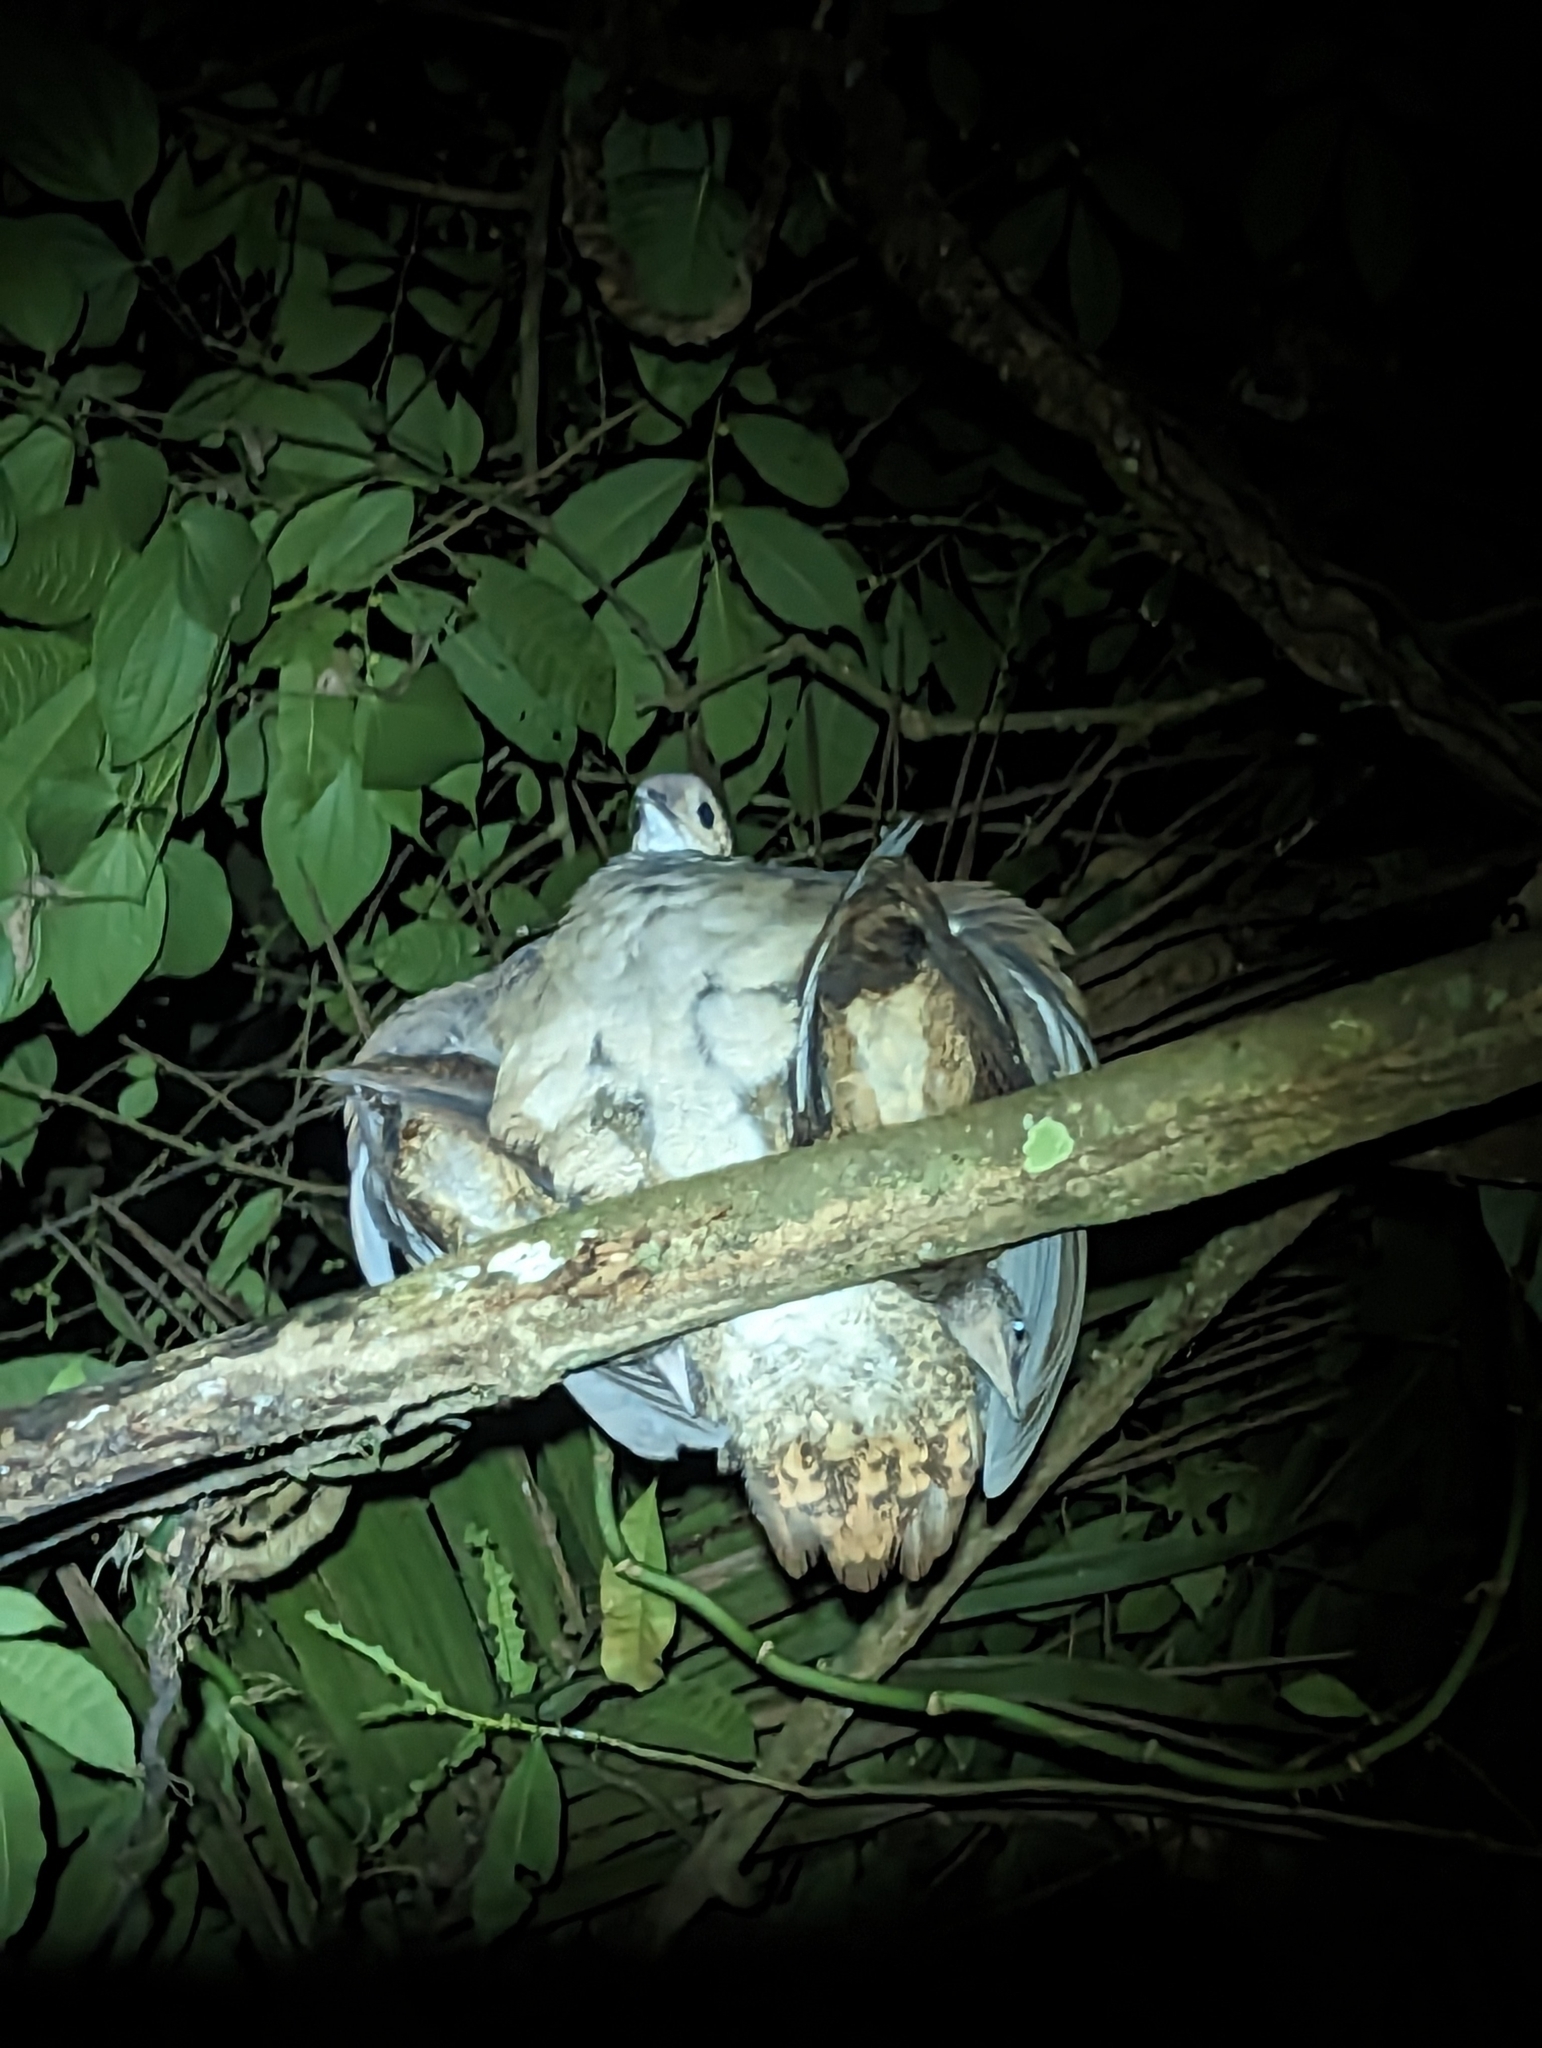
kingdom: Animalia
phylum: Chordata
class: Aves
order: Tinamiformes
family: Tinamidae
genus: Tinamus
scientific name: Tinamus major
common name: Great tinamou
